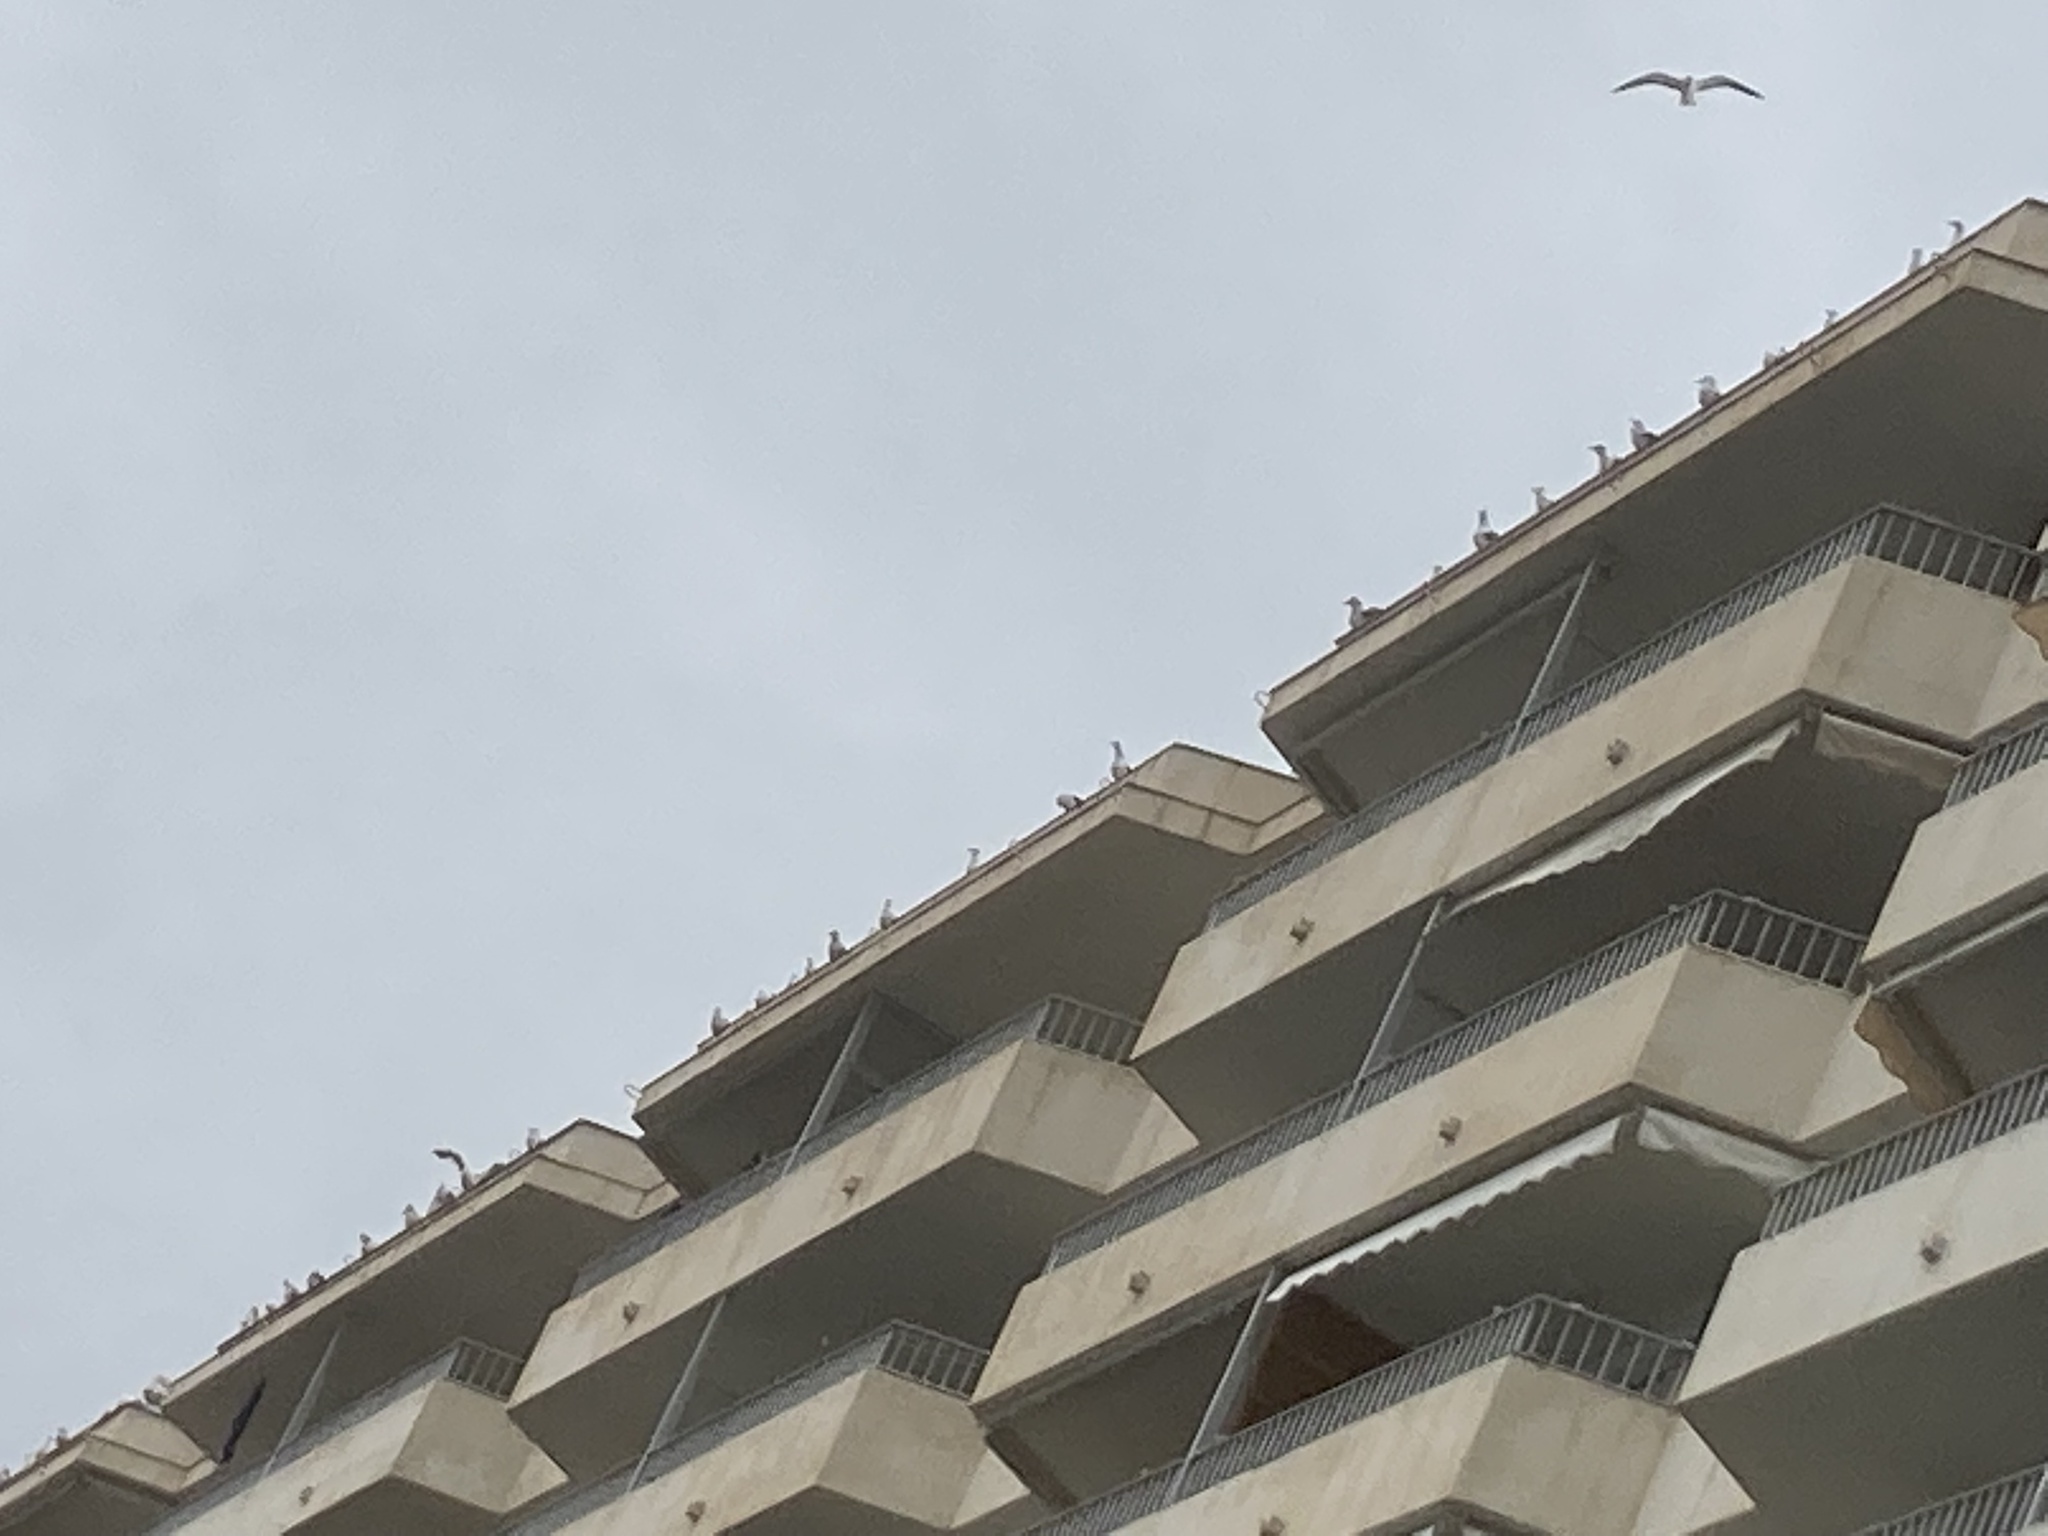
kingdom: Animalia
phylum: Chordata
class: Aves
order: Charadriiformes
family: Laridae
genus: Larus
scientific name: Larus michahellis
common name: Yellow-legged gull
